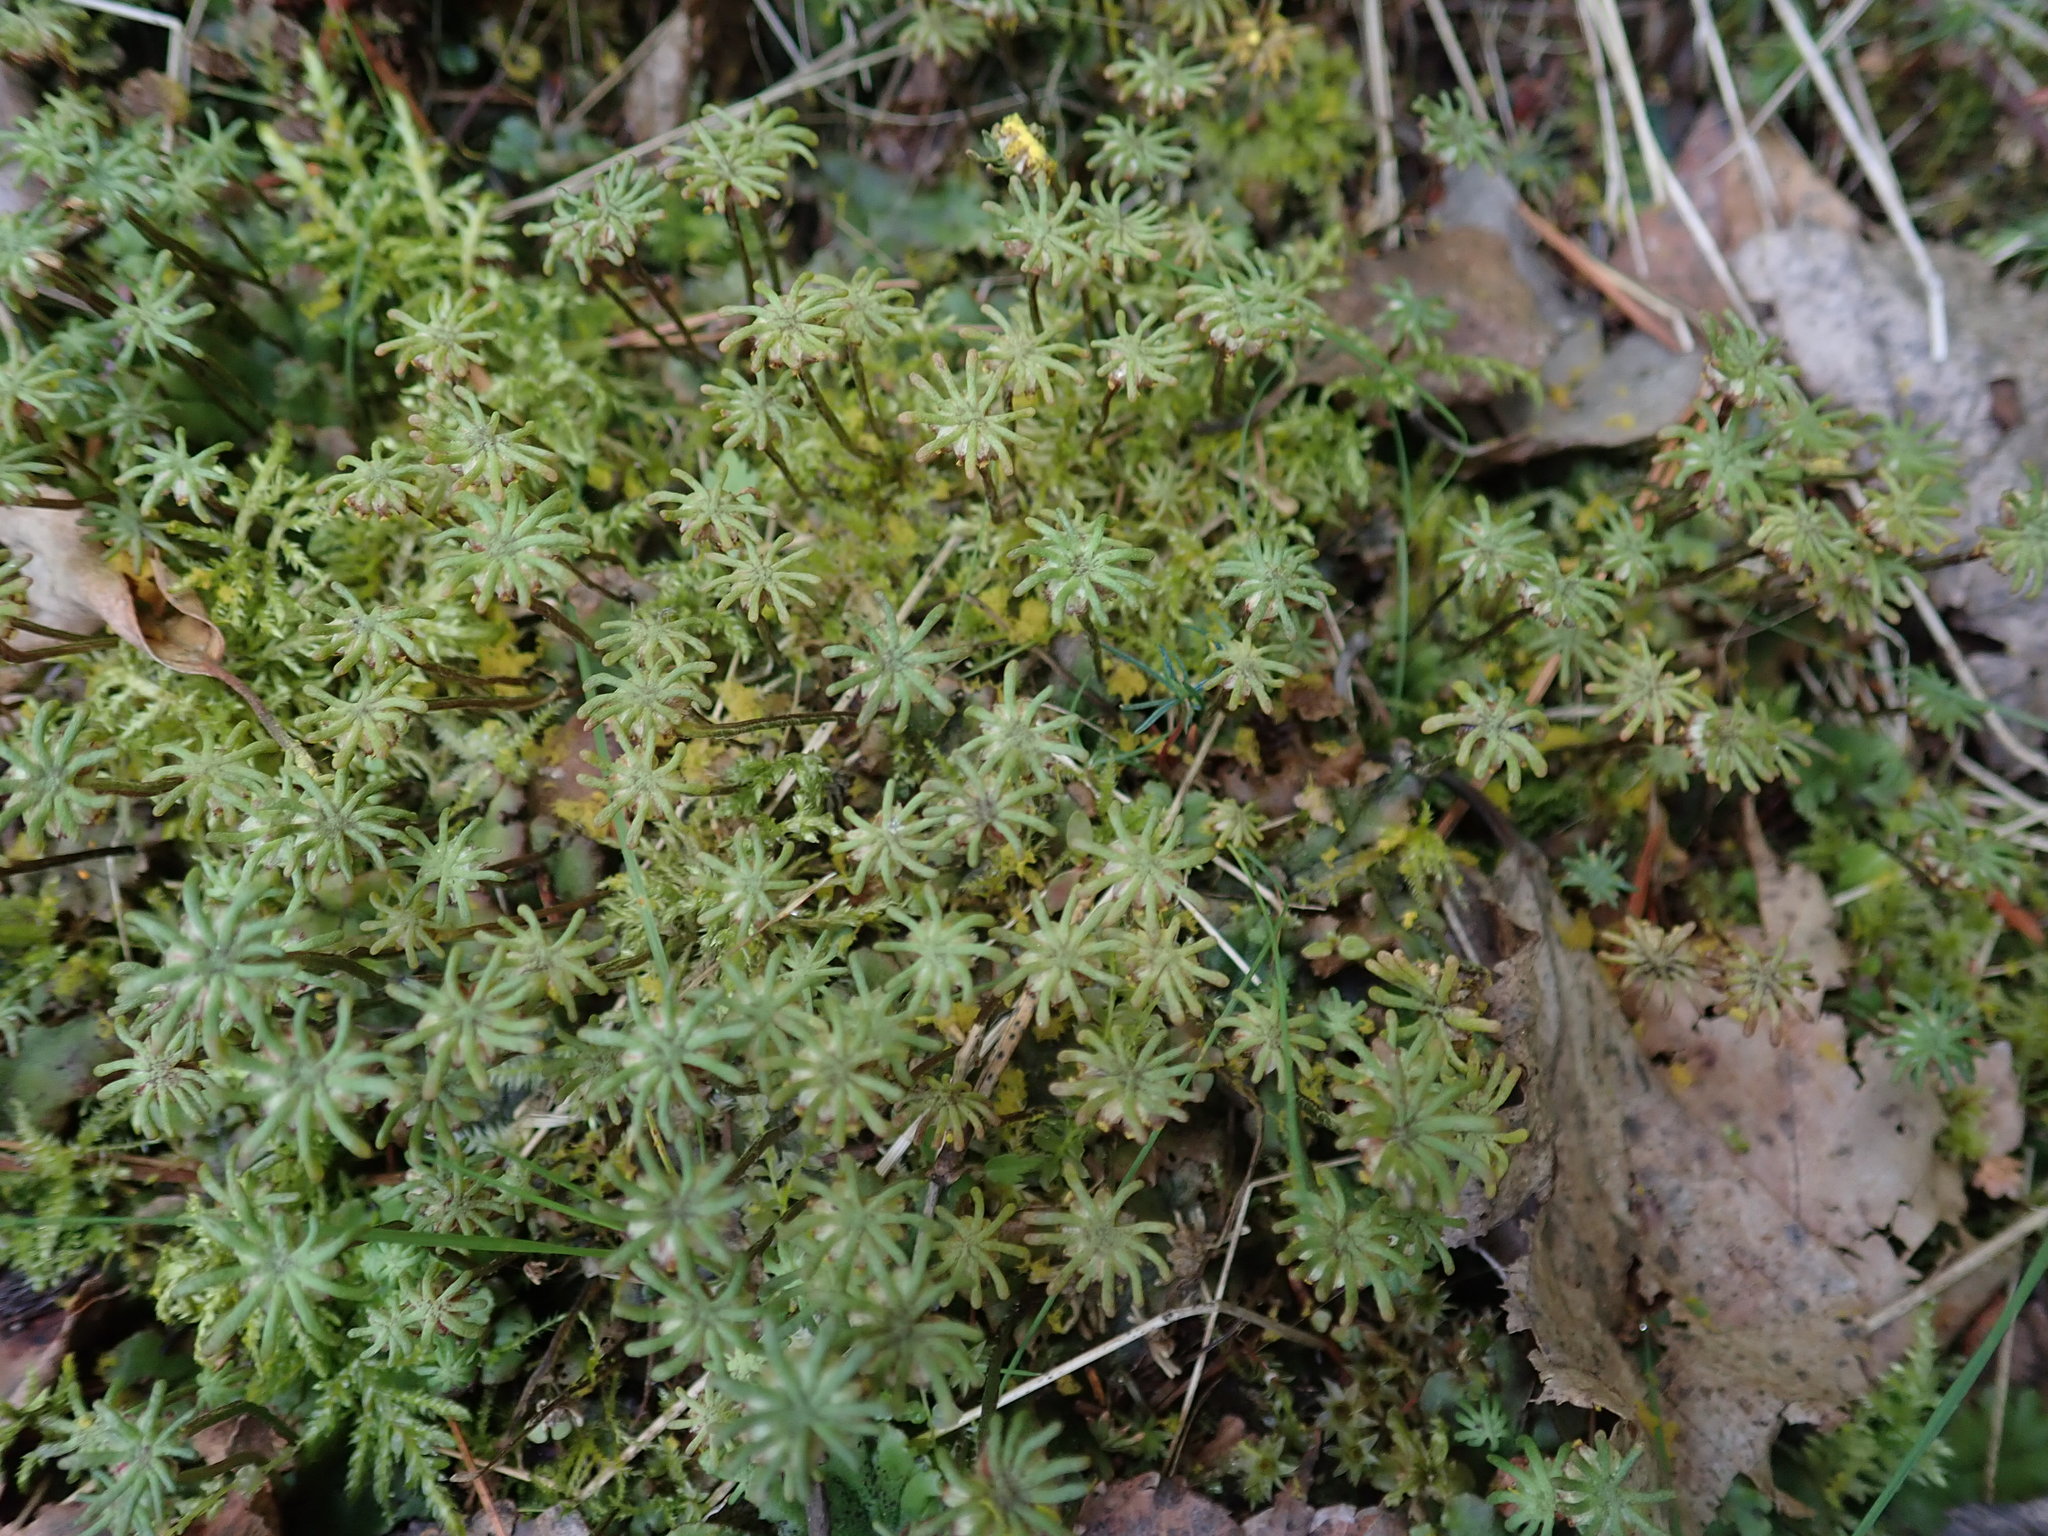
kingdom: Plantae
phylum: Marchantiophyta
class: Marchantiopsida
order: Marchantiales
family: Marchantiaceae
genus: Marchantia
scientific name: Marchantia polymorpha
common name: Common liverwort
